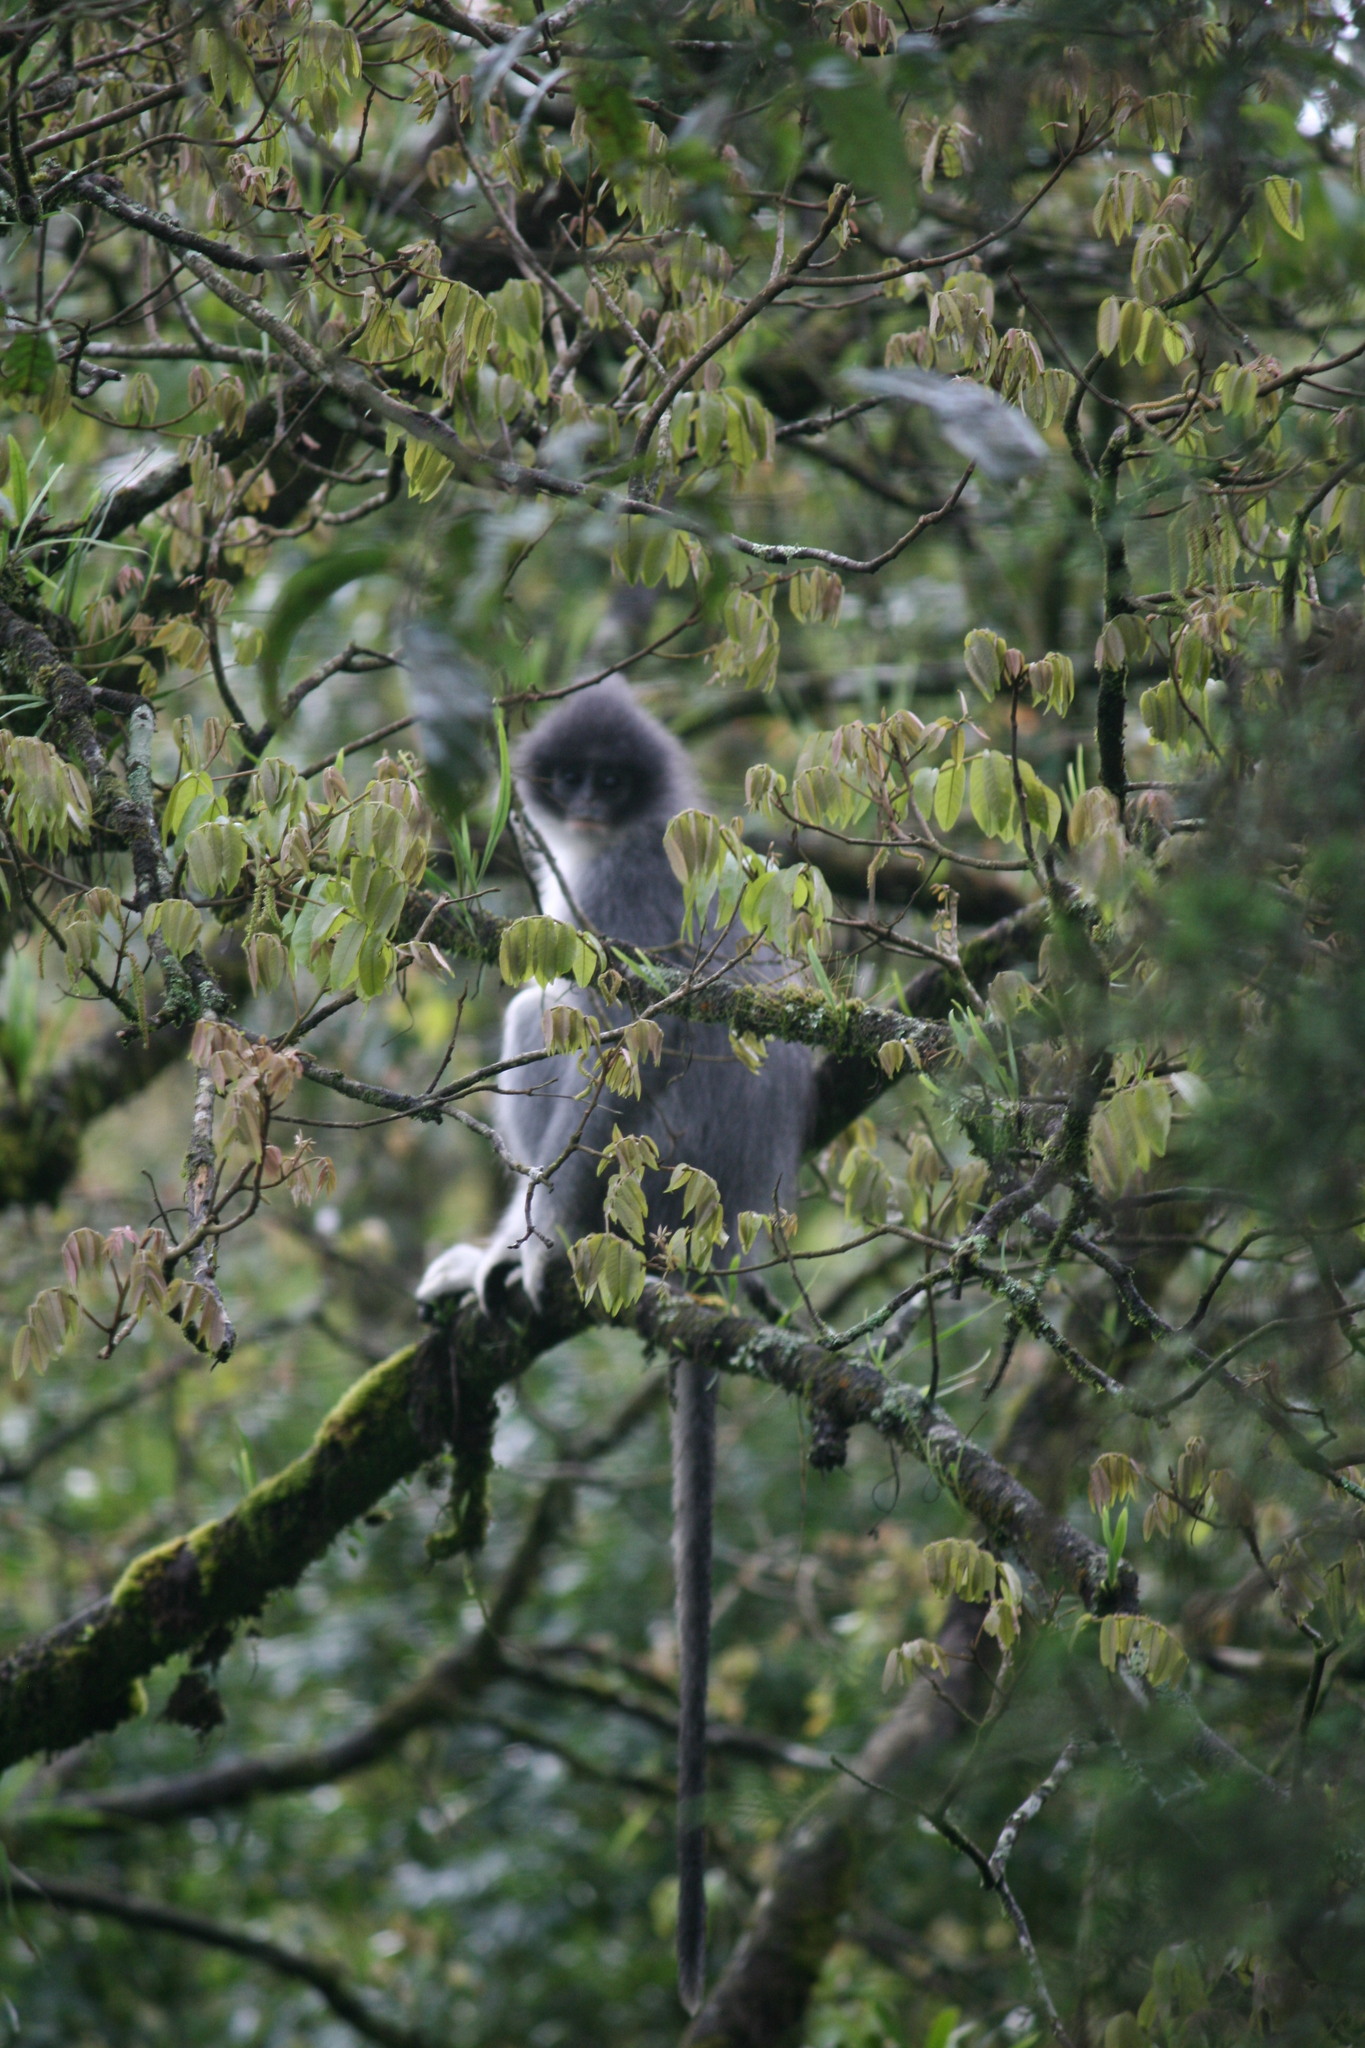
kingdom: Animalia
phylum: Chordata
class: Mammalia
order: Primates
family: Cercopithecidae
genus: Presbytis
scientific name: Presbytis comata
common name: Javan surili
